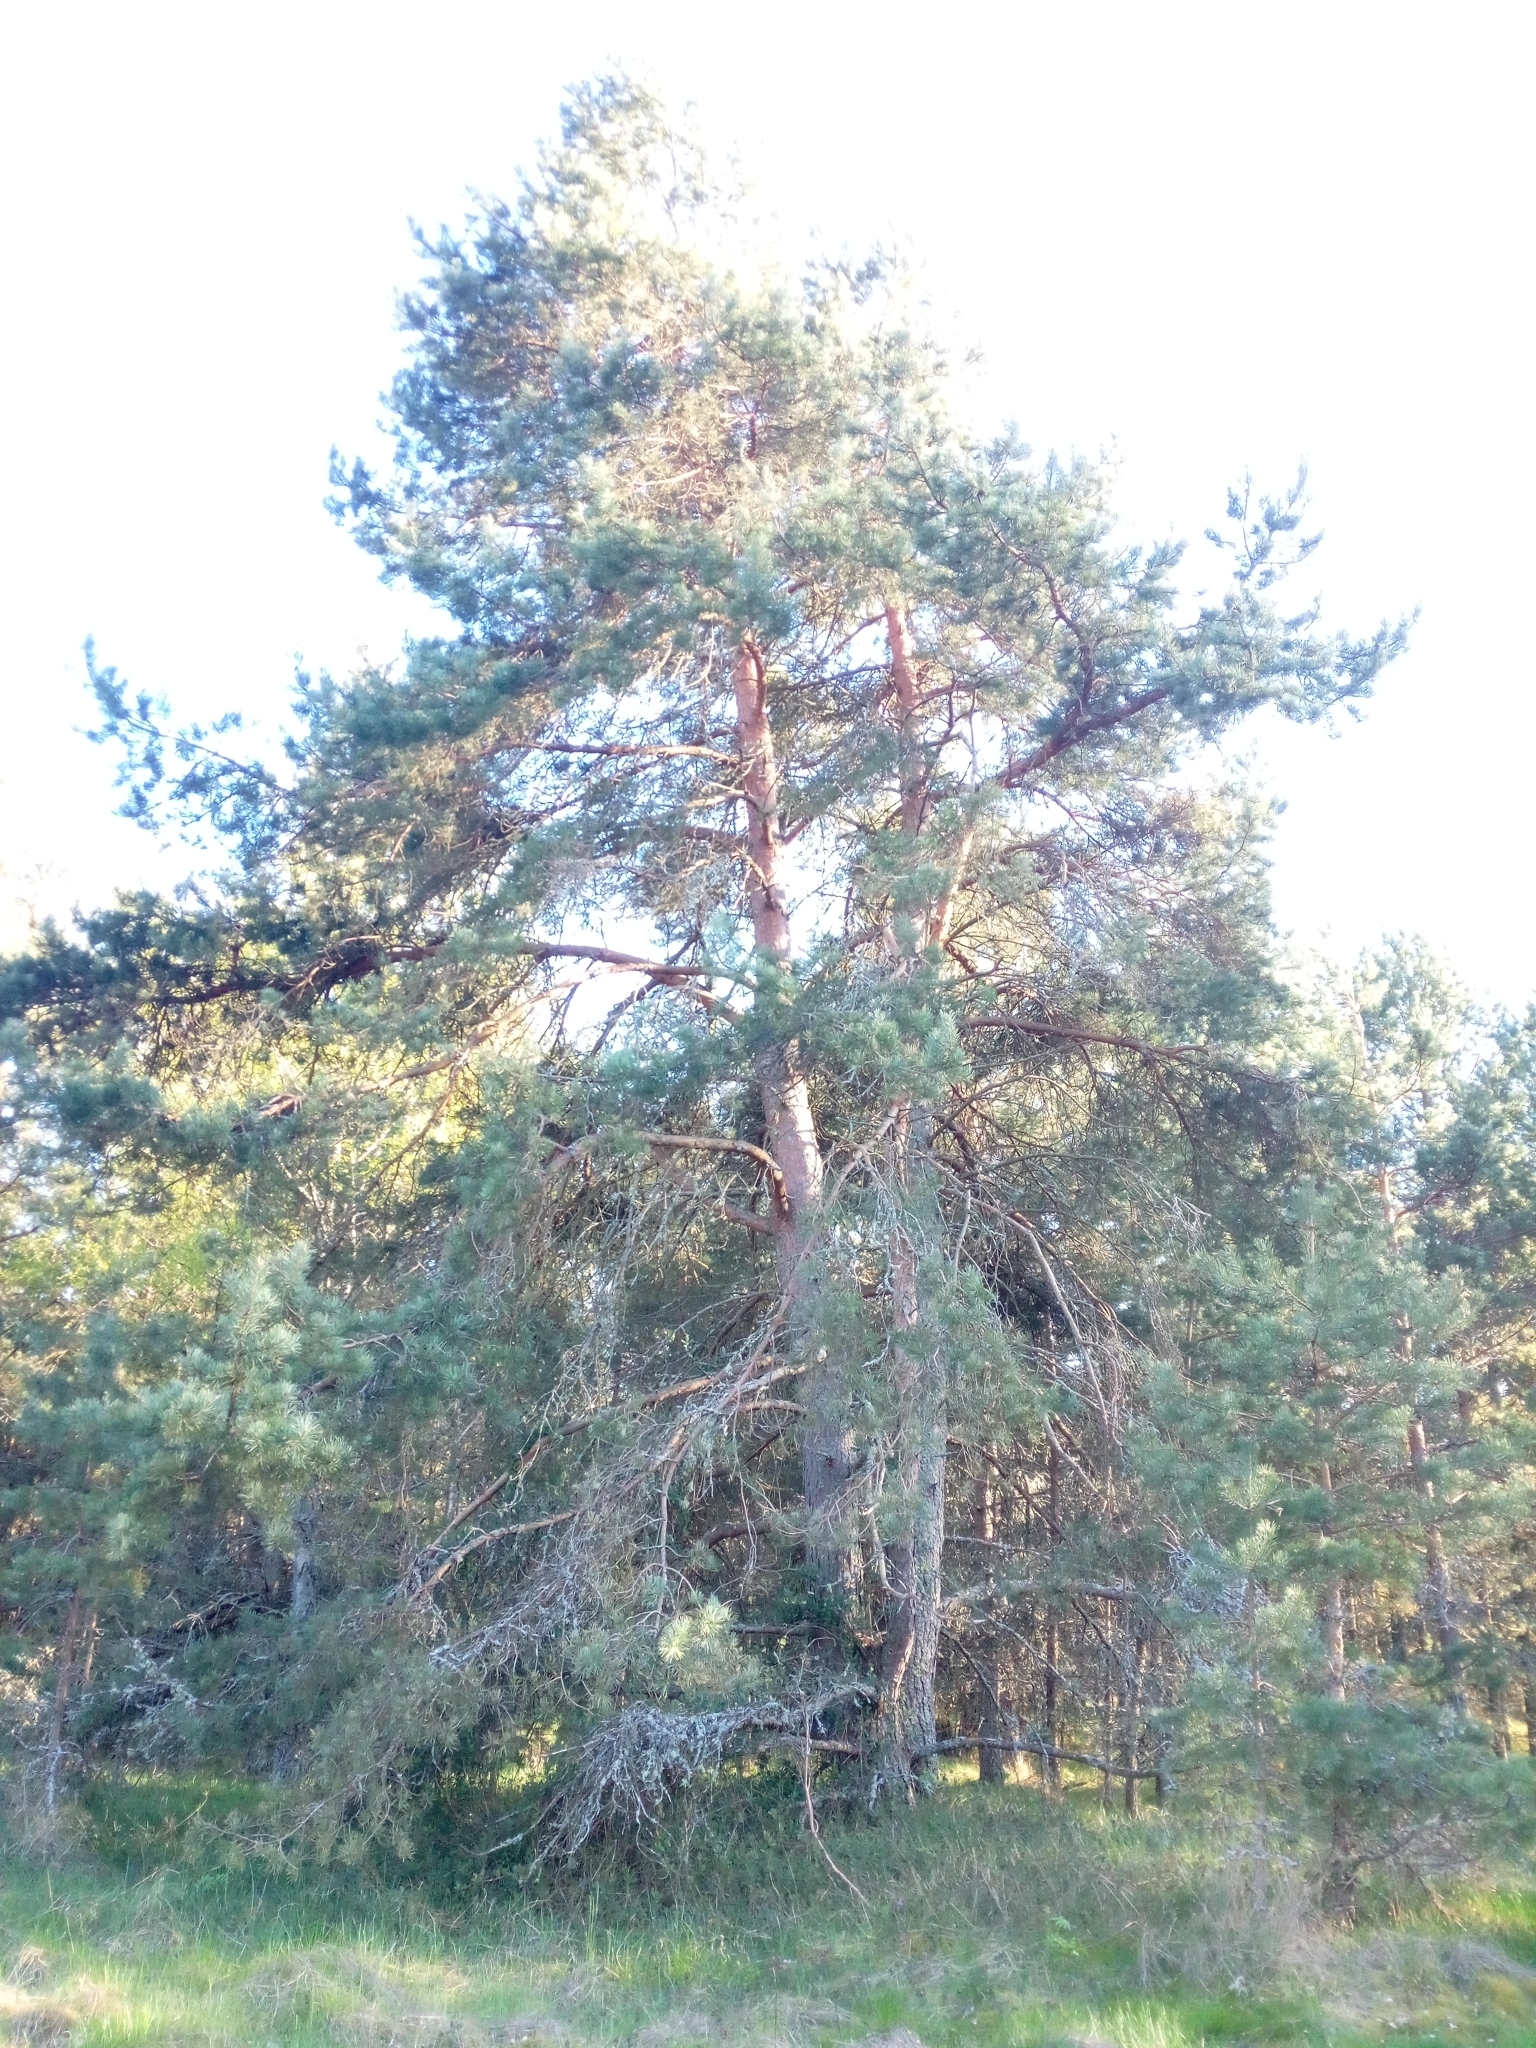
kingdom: Plantae
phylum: Tracheophyta
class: Pinopsida
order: Pinales
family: Pinaceae
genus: Pinus
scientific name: Pinus sylvestris
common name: Scots pine
